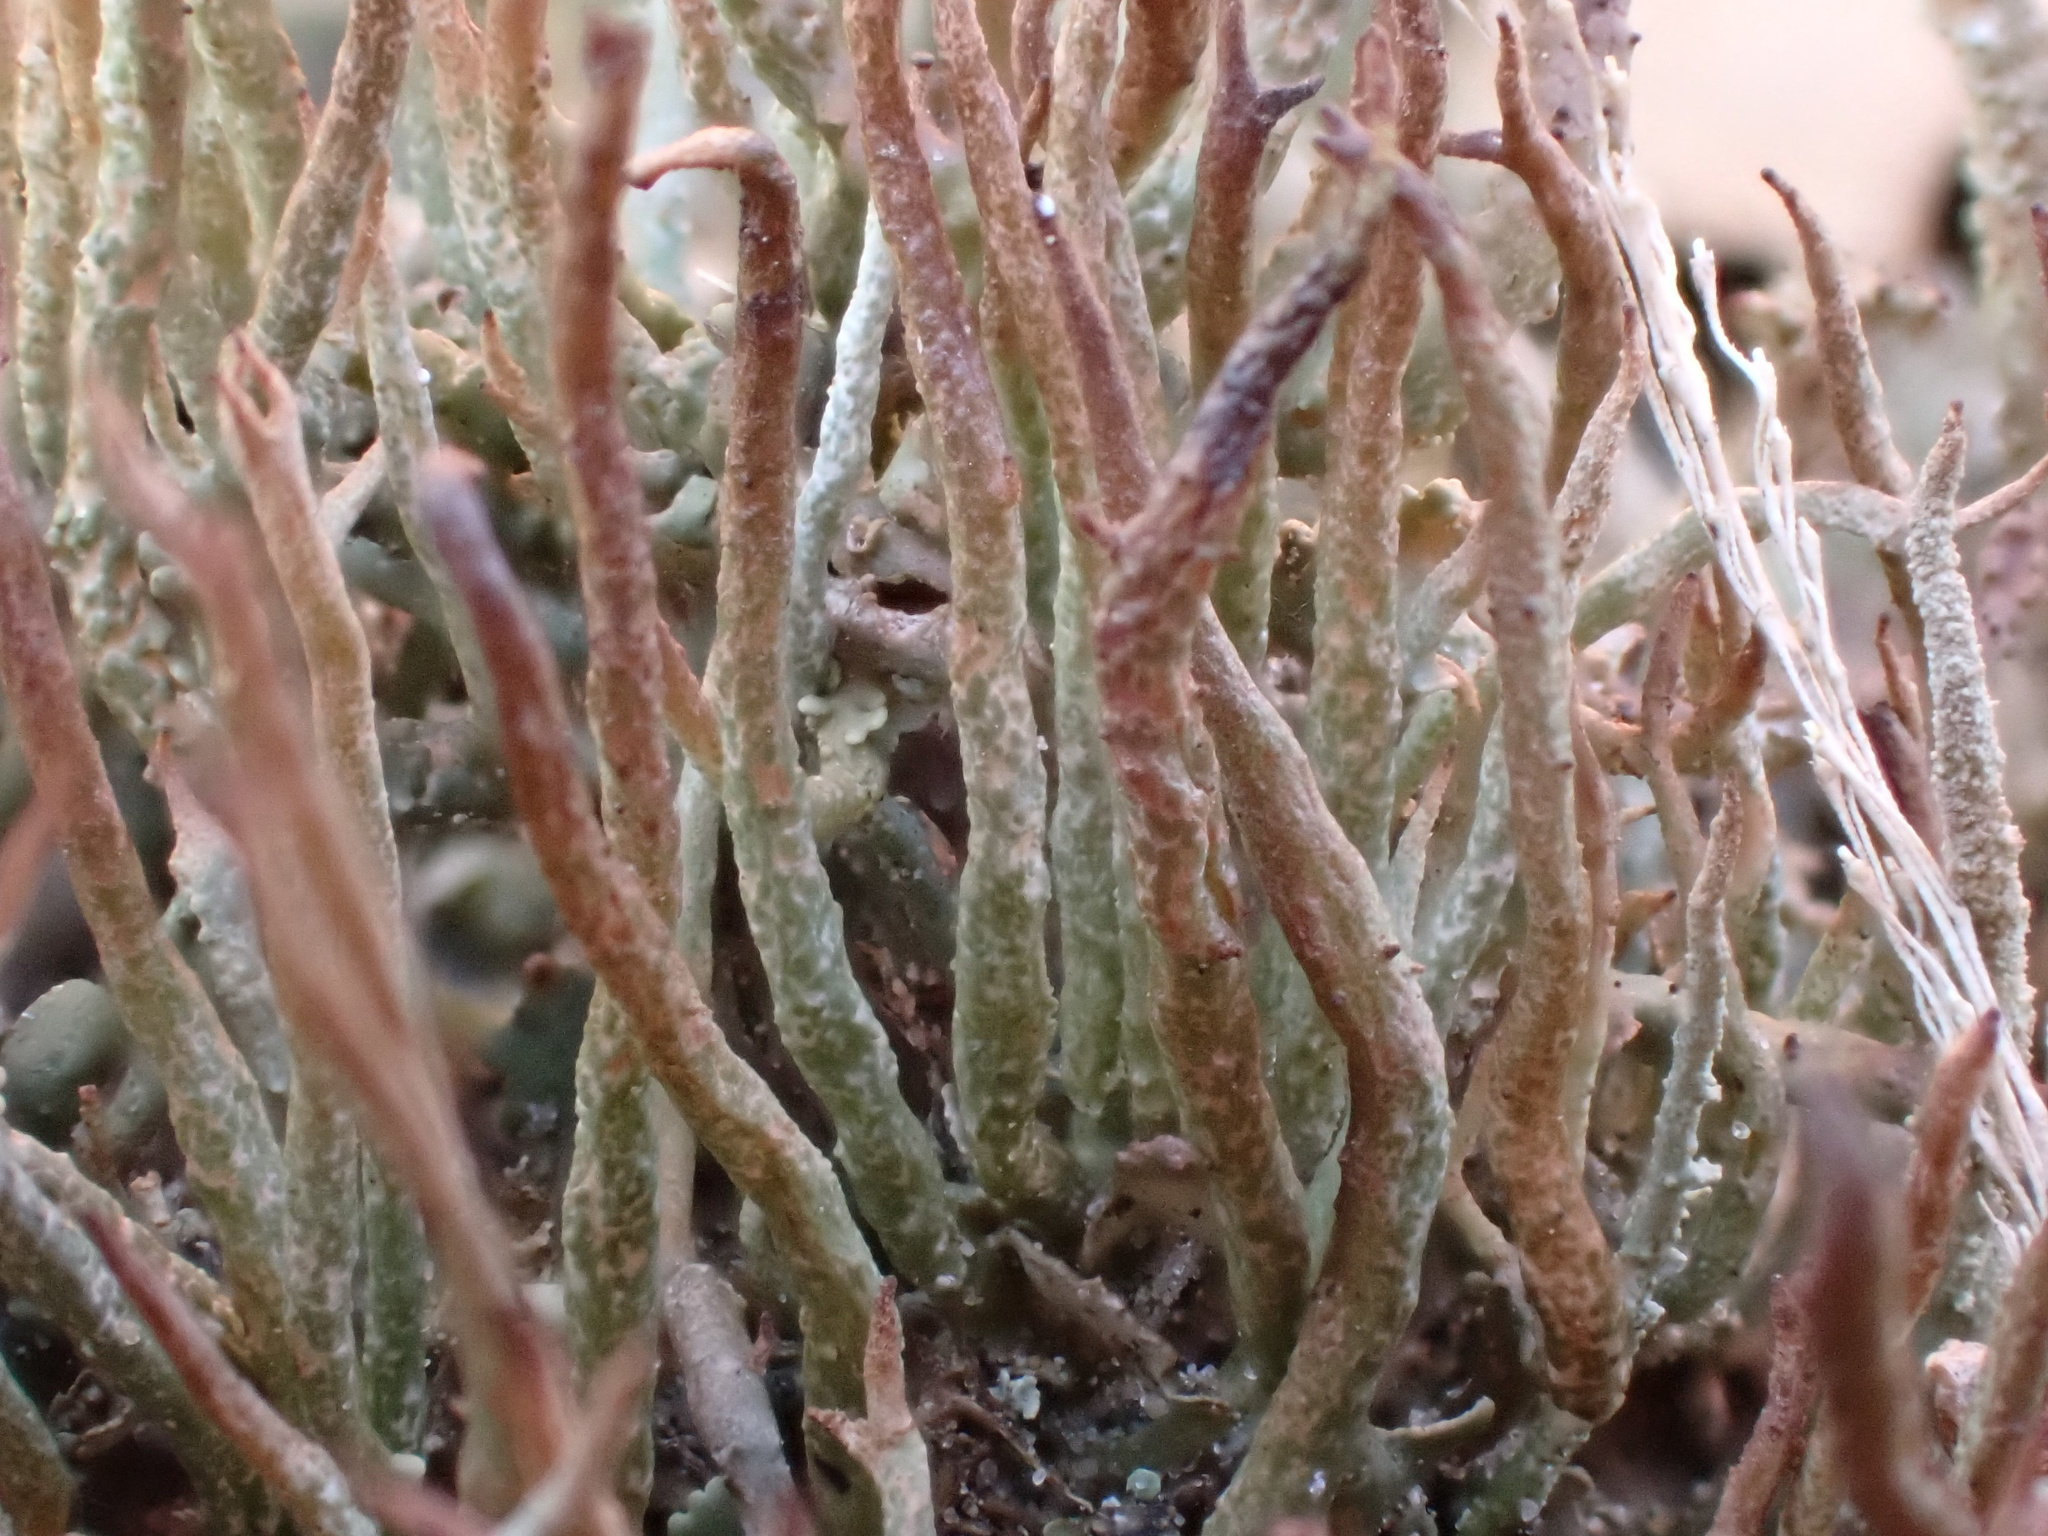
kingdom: Fungi
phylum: Ascomycota
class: Lecanoromycetes
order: Lecanorales
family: Cladoniaceae
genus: Cladonia
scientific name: Cladonia gracilis
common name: Smooth clad lichen
